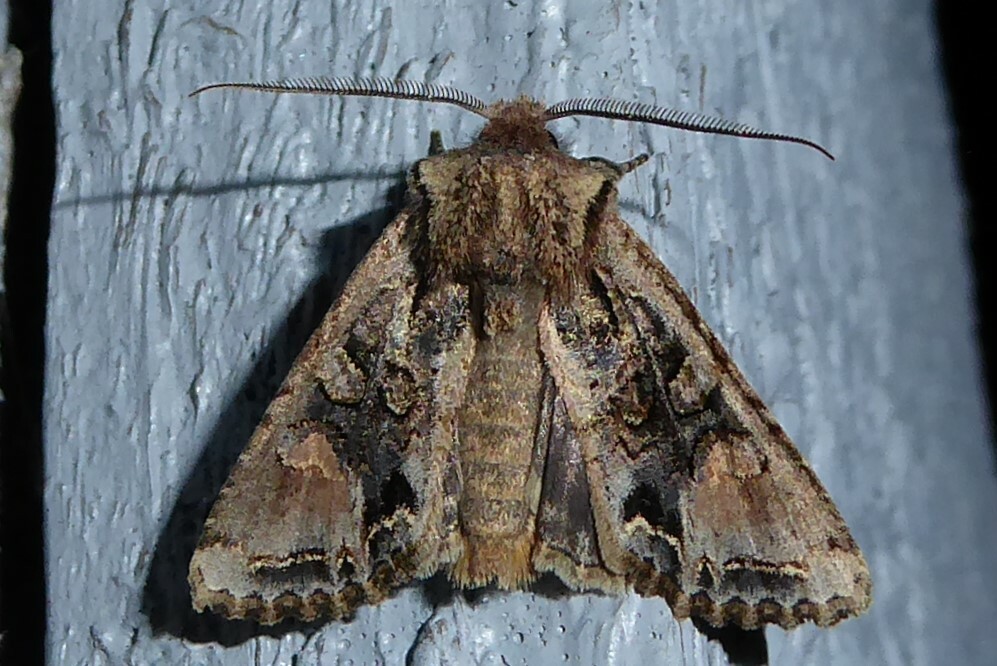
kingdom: Animalia
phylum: Arthropoda
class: Insecta
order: Lepidoptera
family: Noctuidae
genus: Ichneutica
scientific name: Ichneutica skelloni
